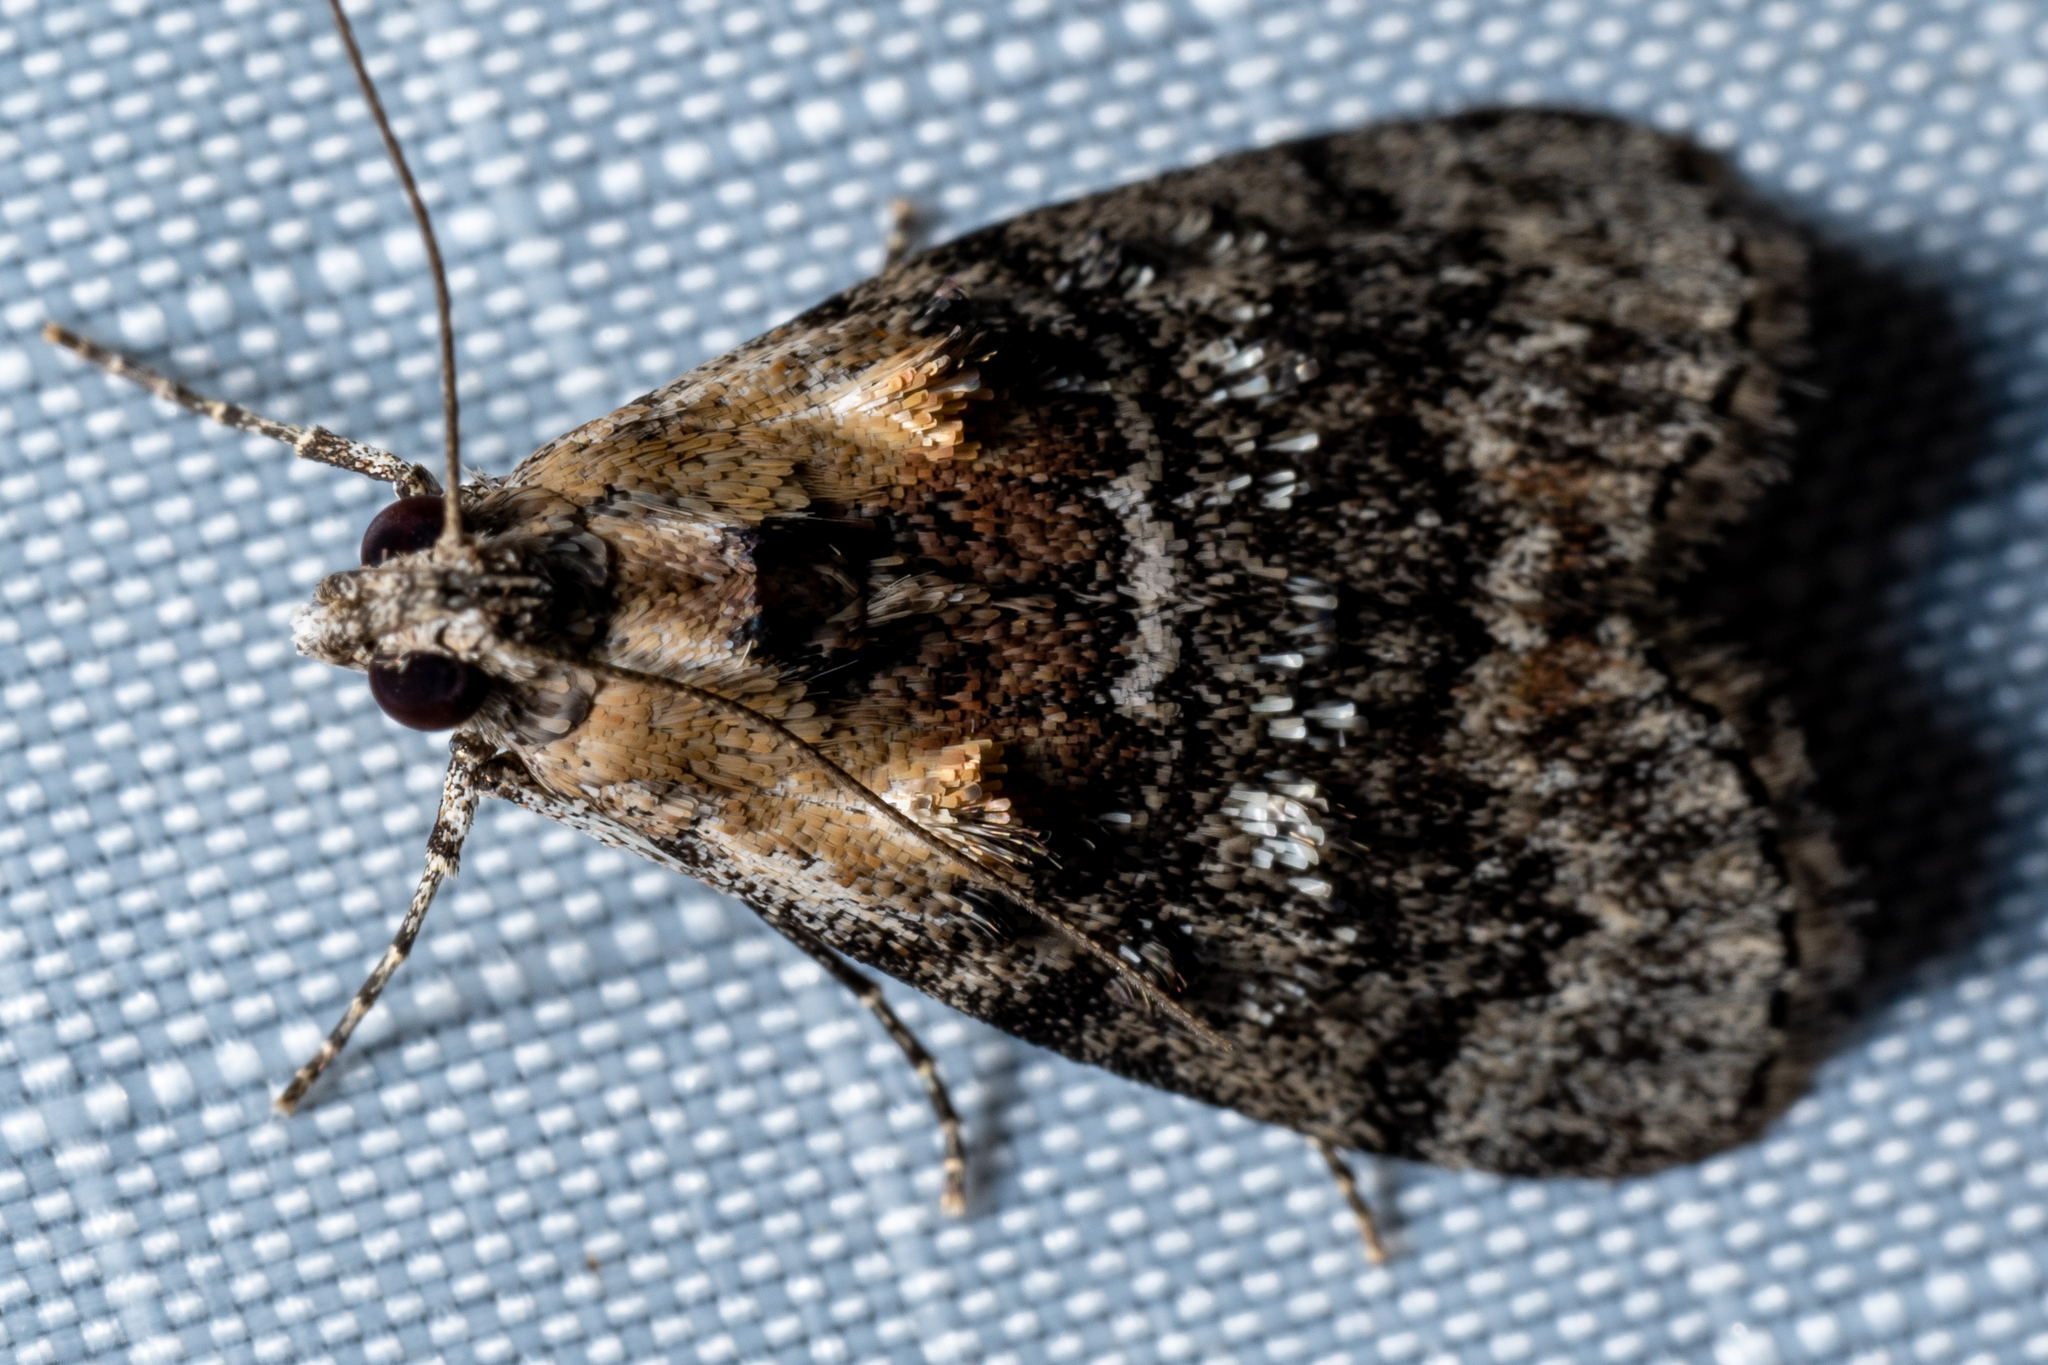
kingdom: Animalia
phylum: Arthropoda
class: Insecta
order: Lepidoptera
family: Pyralidae
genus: Pococera
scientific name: Pococera expandens
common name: Striped oak webworm moth
